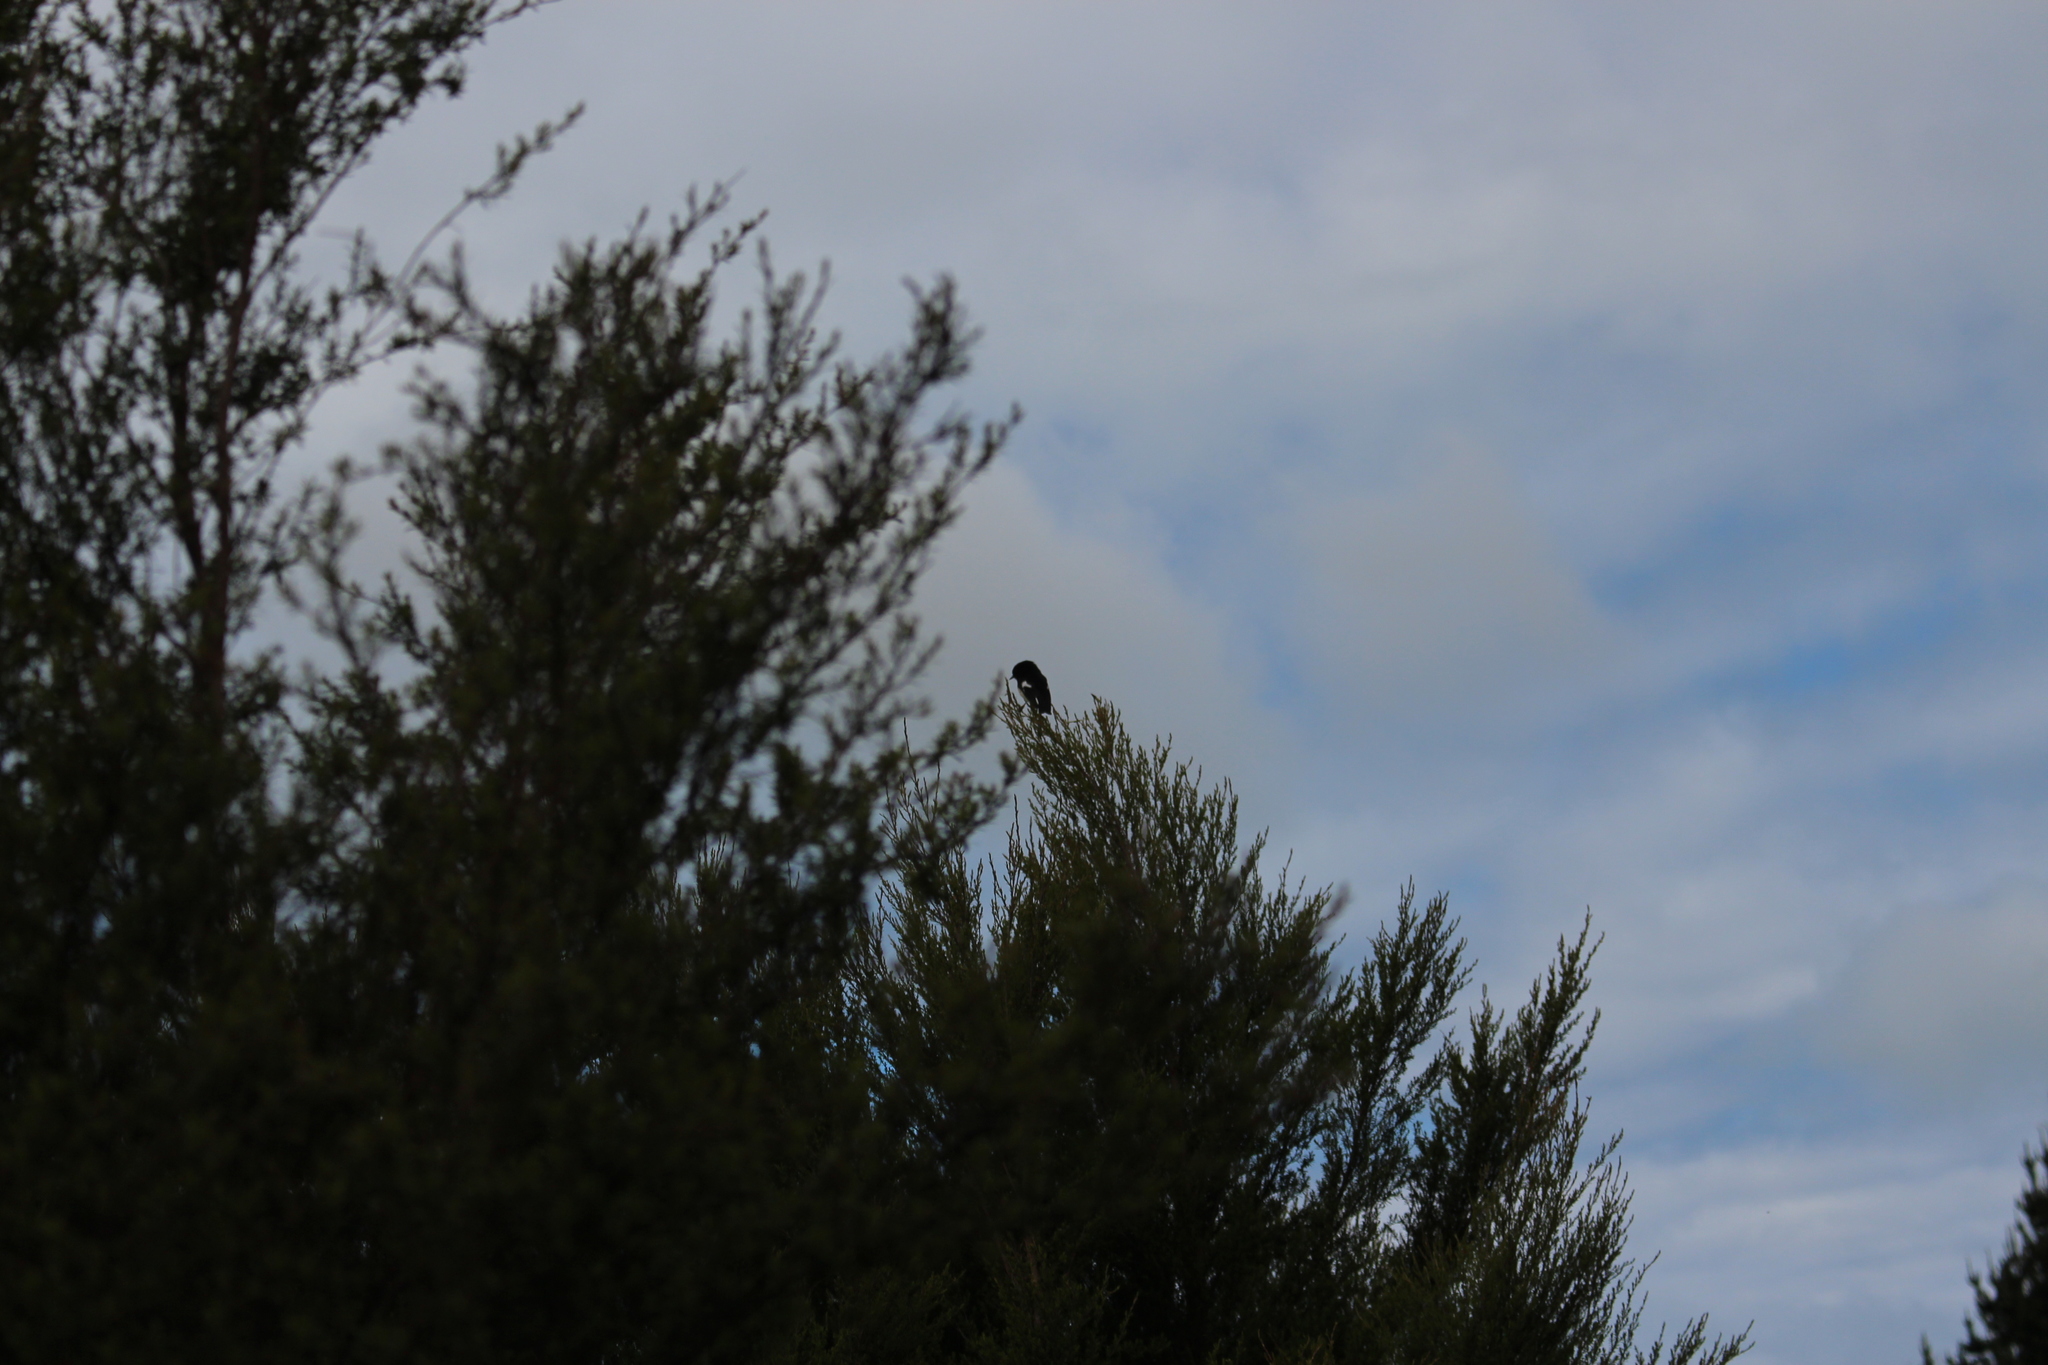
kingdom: Animalia
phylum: Chordata
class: Aves
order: Passeriformes
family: Petroicidae
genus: Petroica
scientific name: Petroica macrocephala
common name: Tomtit
